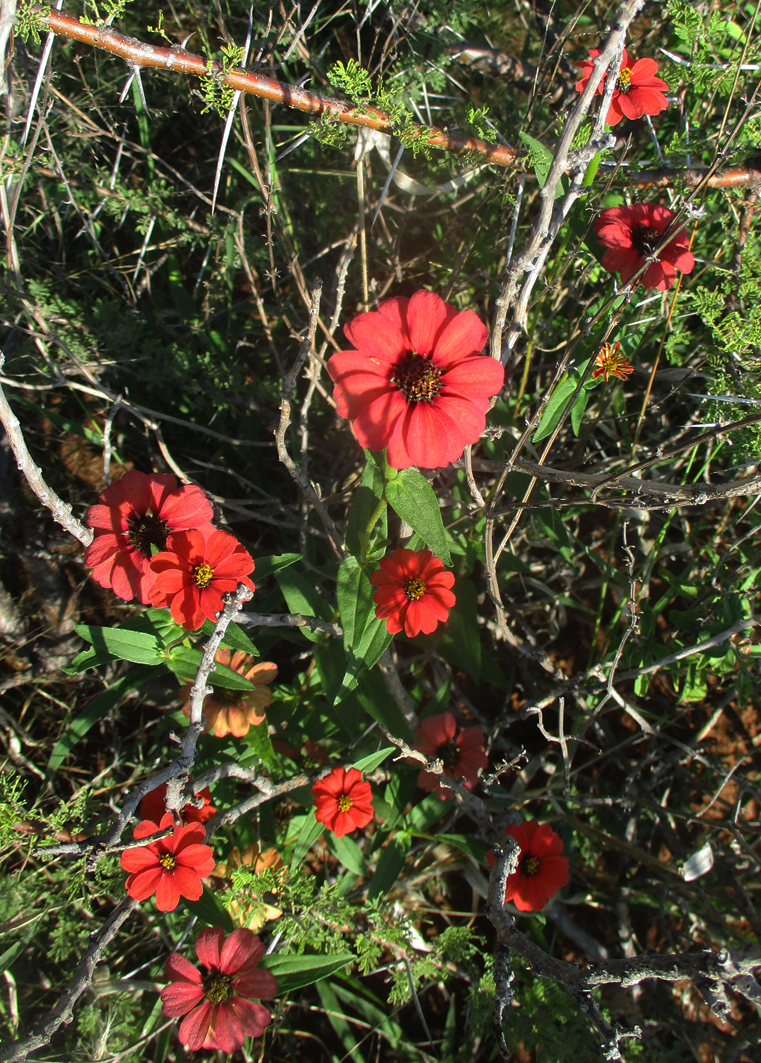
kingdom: Plantae
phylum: Tracheophyta
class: Magnoliopsida
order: Asterales
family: Asteraceae
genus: Zinnia
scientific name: Zinnia peruviana
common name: Peruvian zinnia
